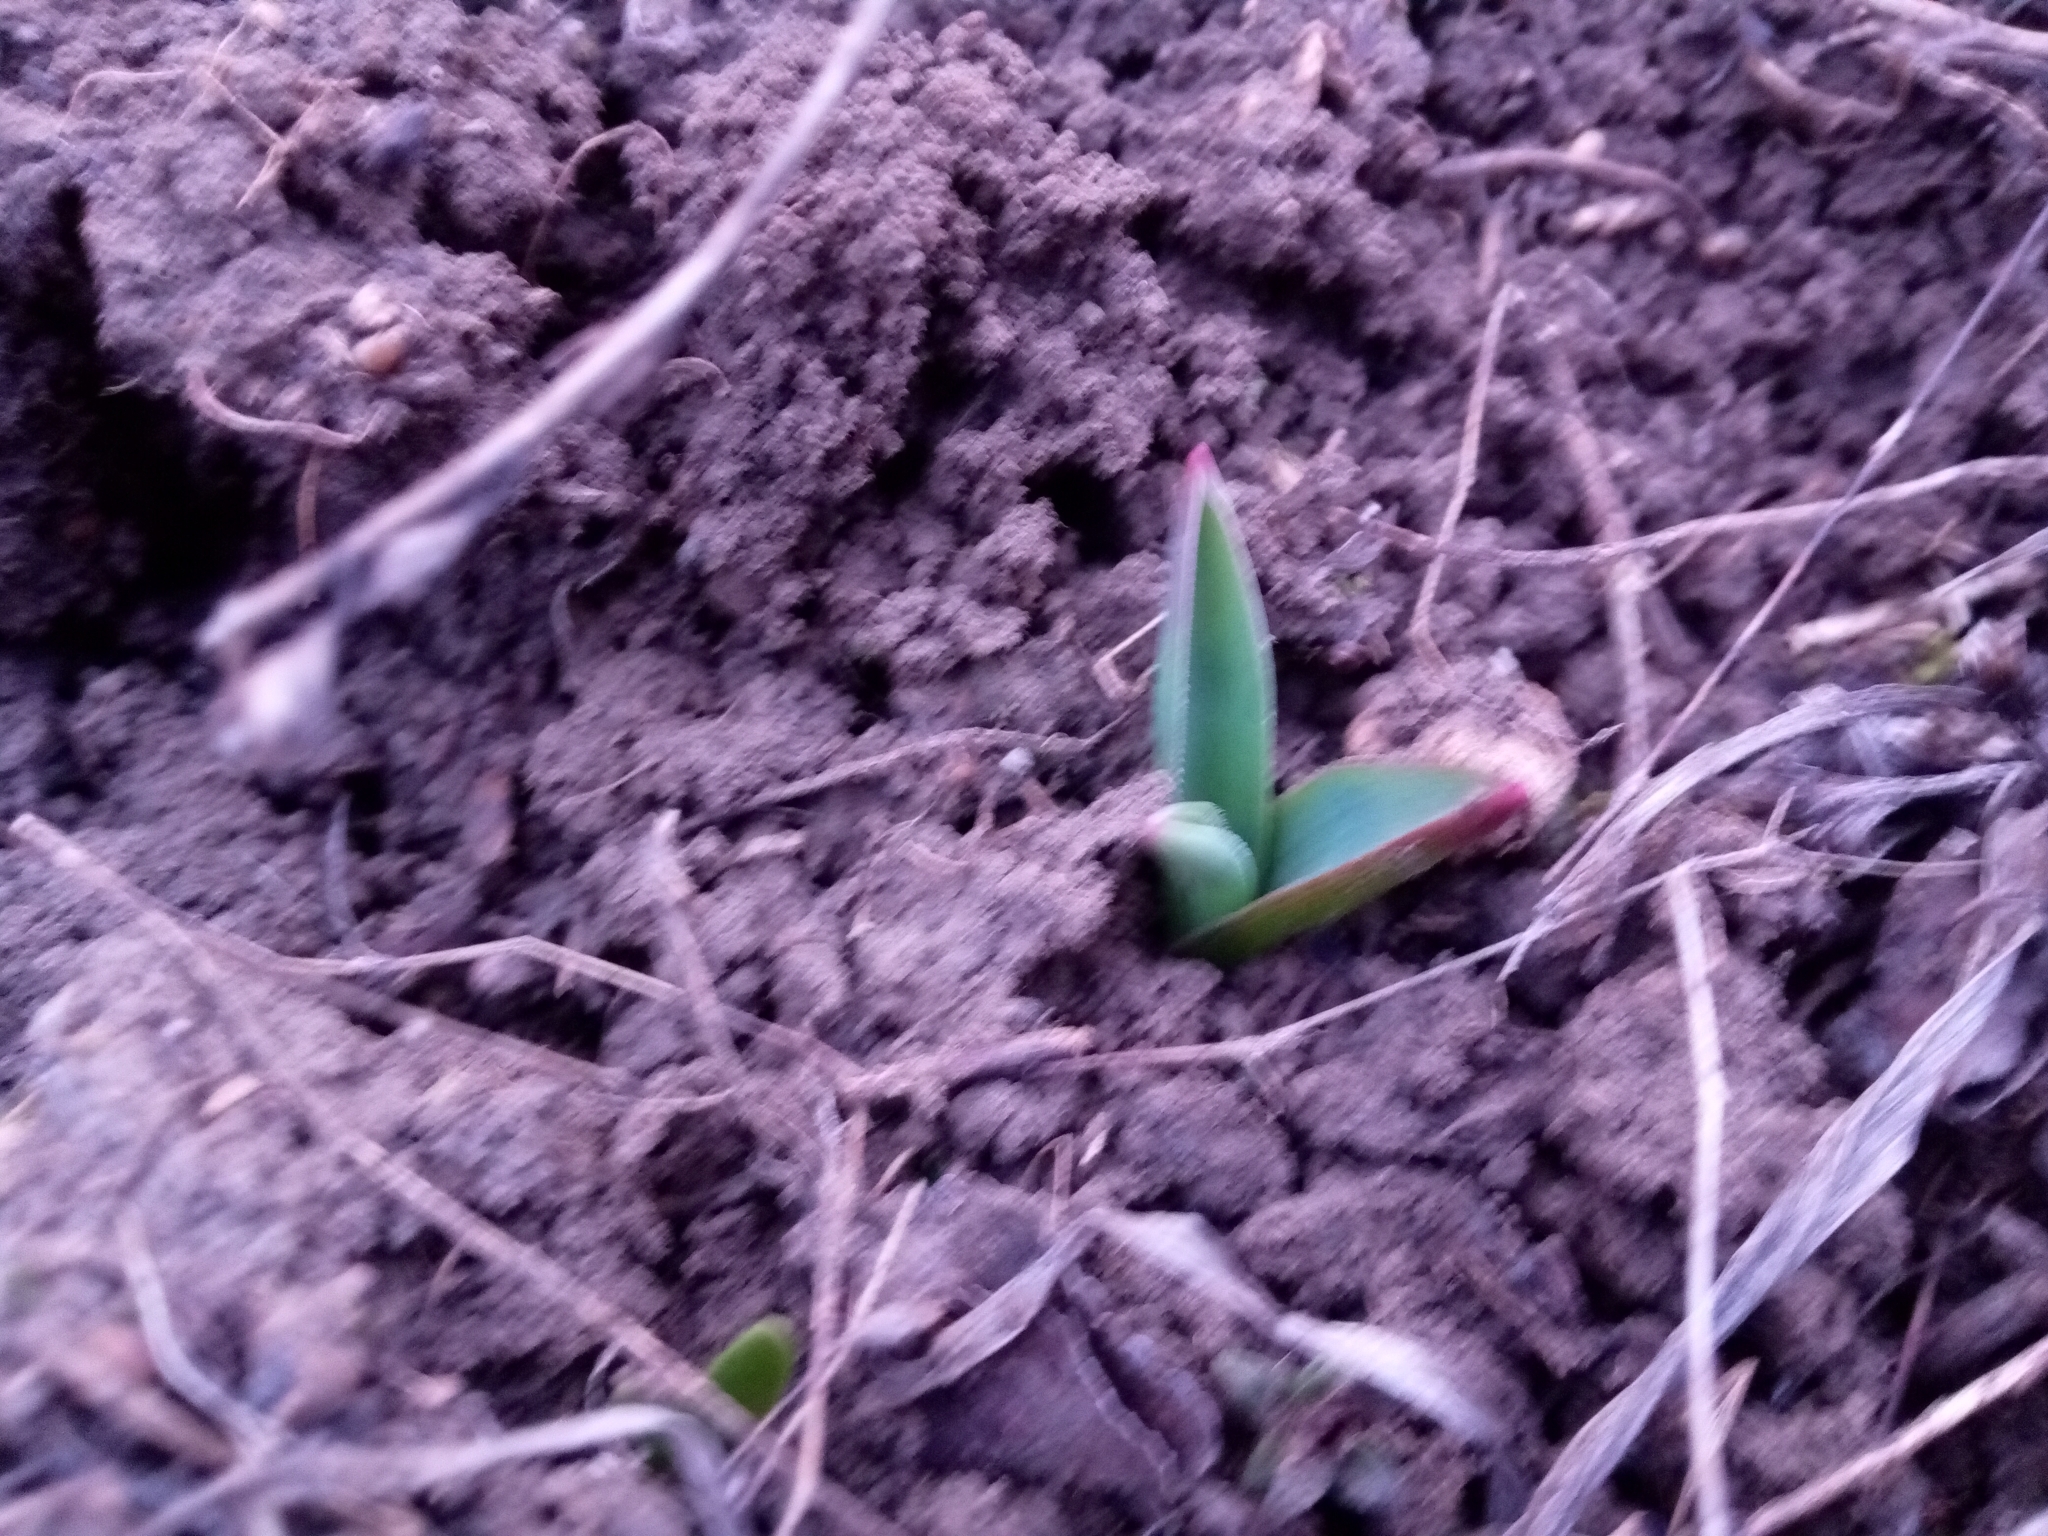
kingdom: Plantae
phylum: Tracheophyta
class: Liliopsida
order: Asparagales
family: Asparagaceae
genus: Bellevalia
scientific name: Bellevalia speciosa
